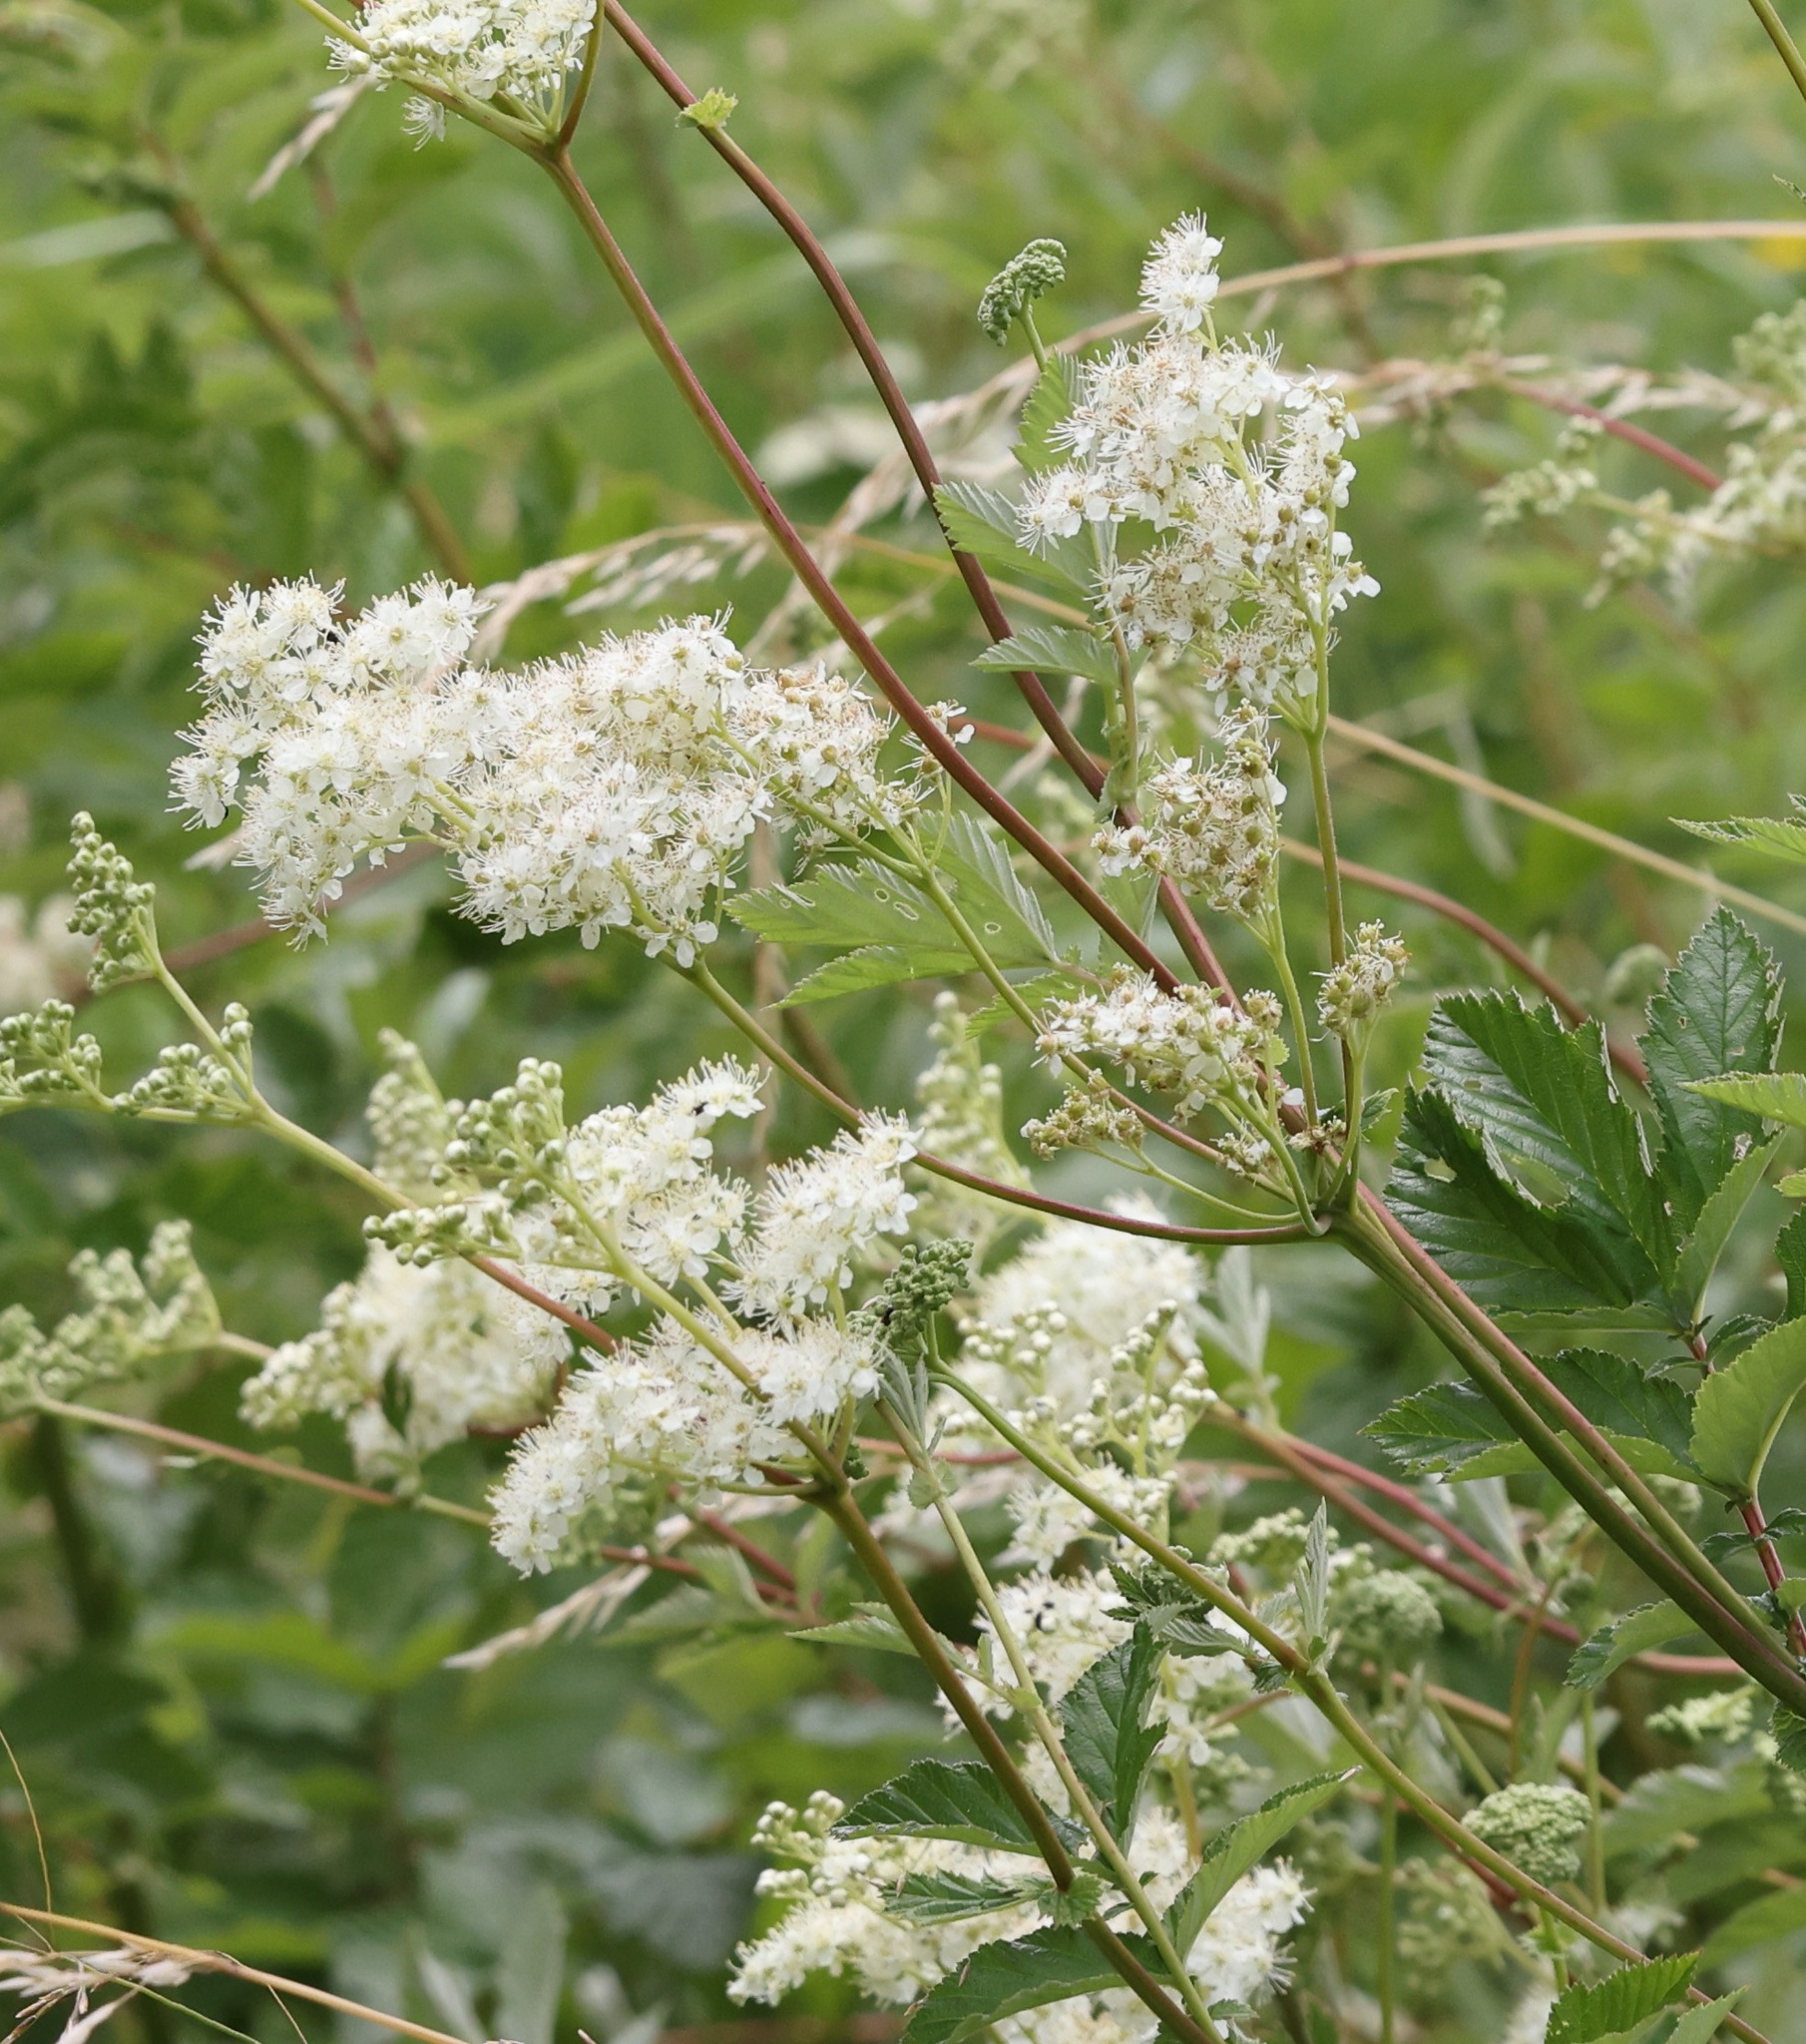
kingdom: Plantae
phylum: Tracheophyta
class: Magnoliopsida
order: Rosales
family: Rosaceae
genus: Filipendula
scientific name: Filipendula ulmaria
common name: Meadowsweet
